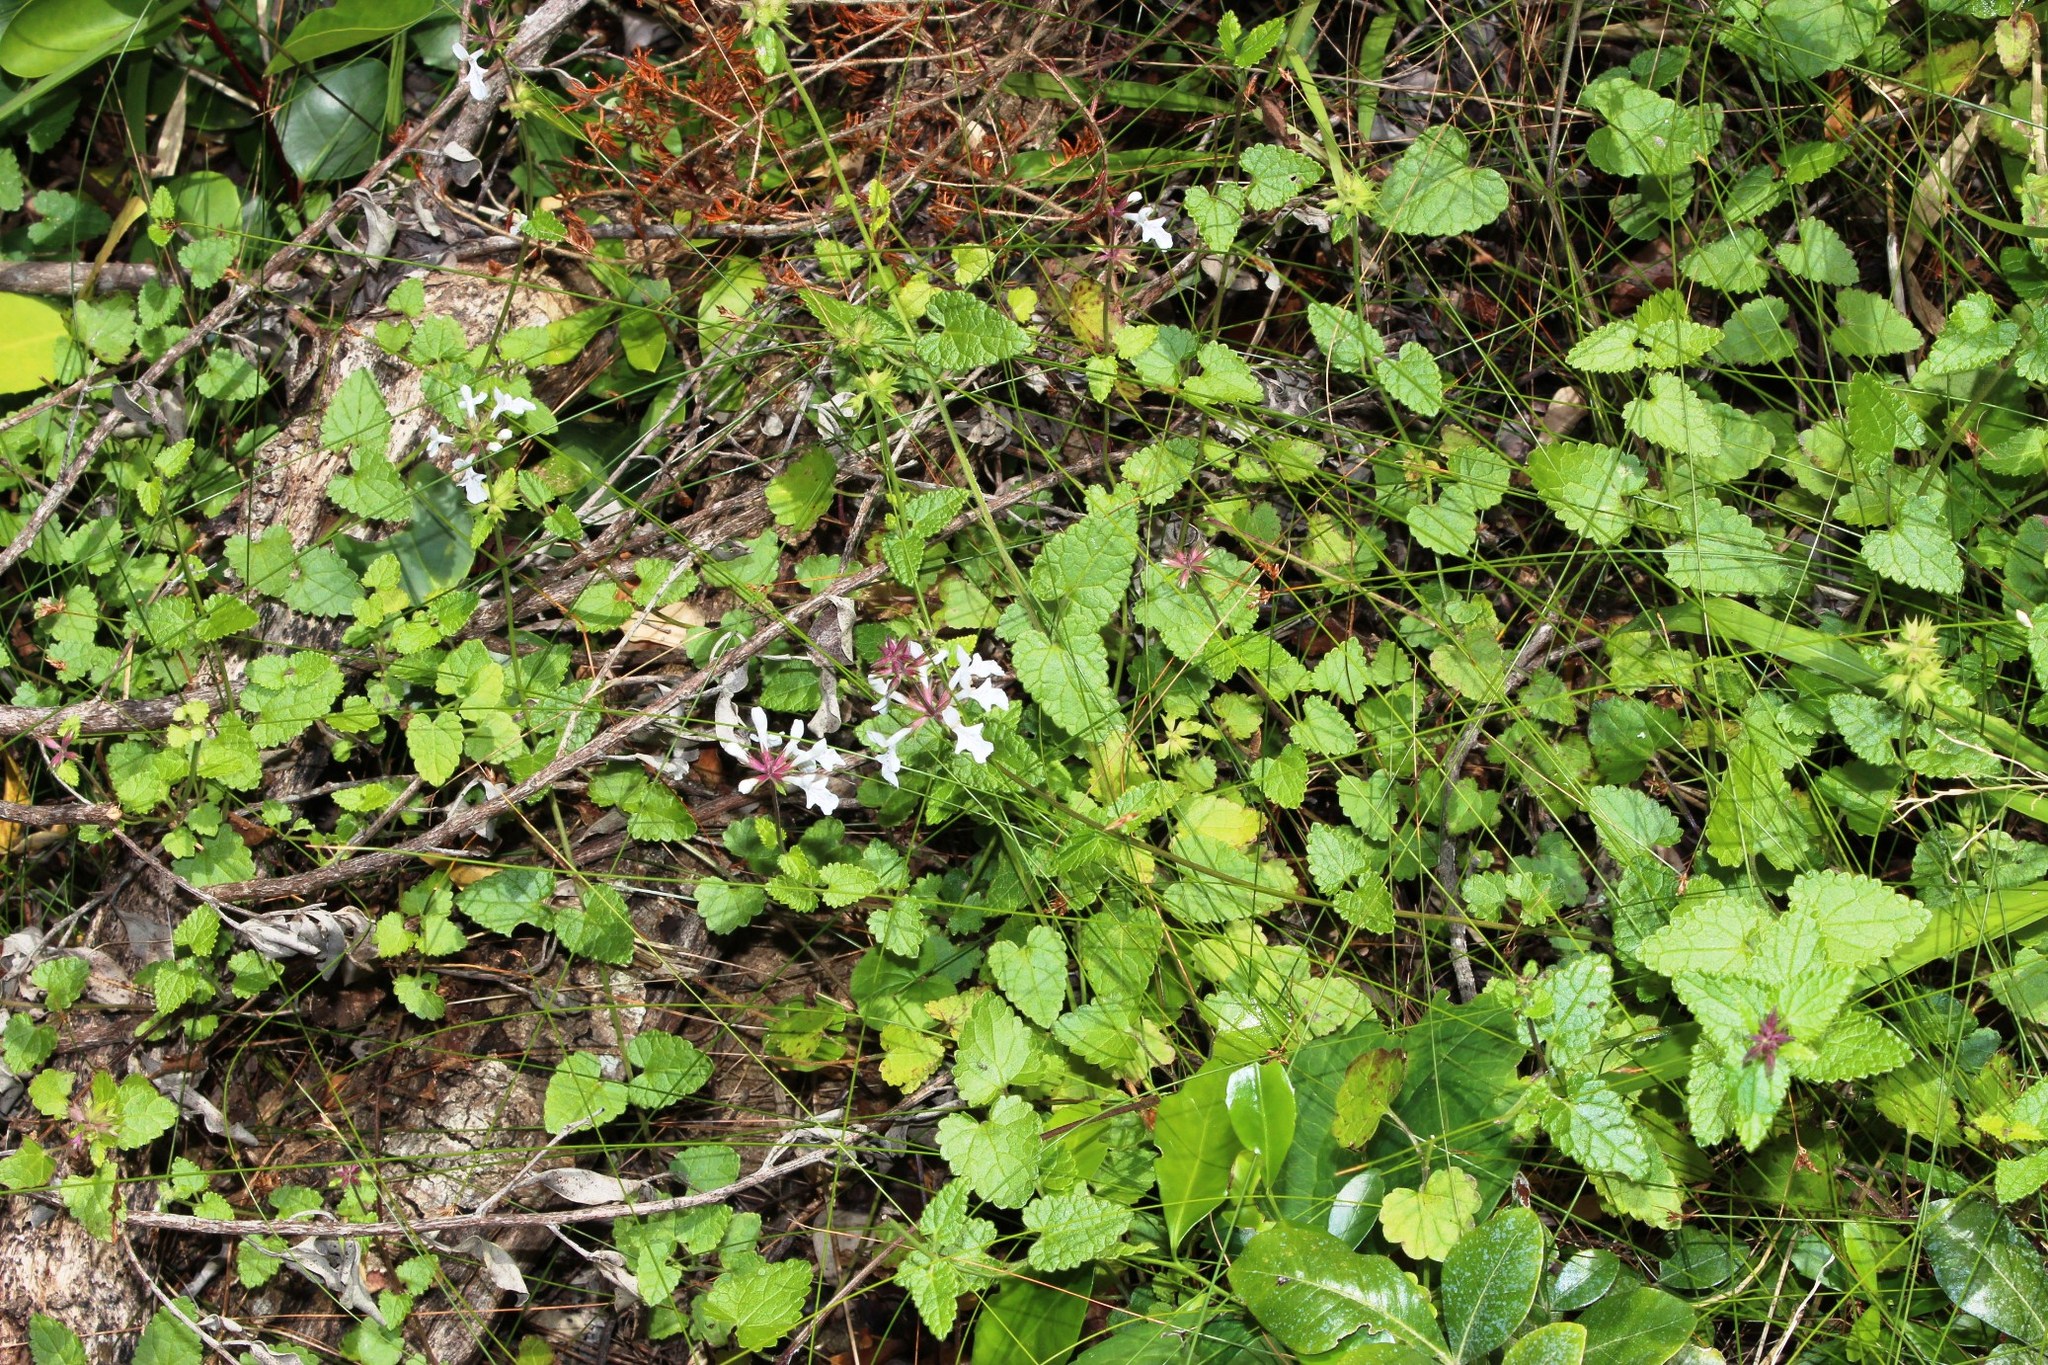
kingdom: Plantae
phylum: Tracheophyta
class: Magnoliopsida
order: Lamiales
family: Lamiaceae
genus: Stachys
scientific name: Stachys aethiopica
